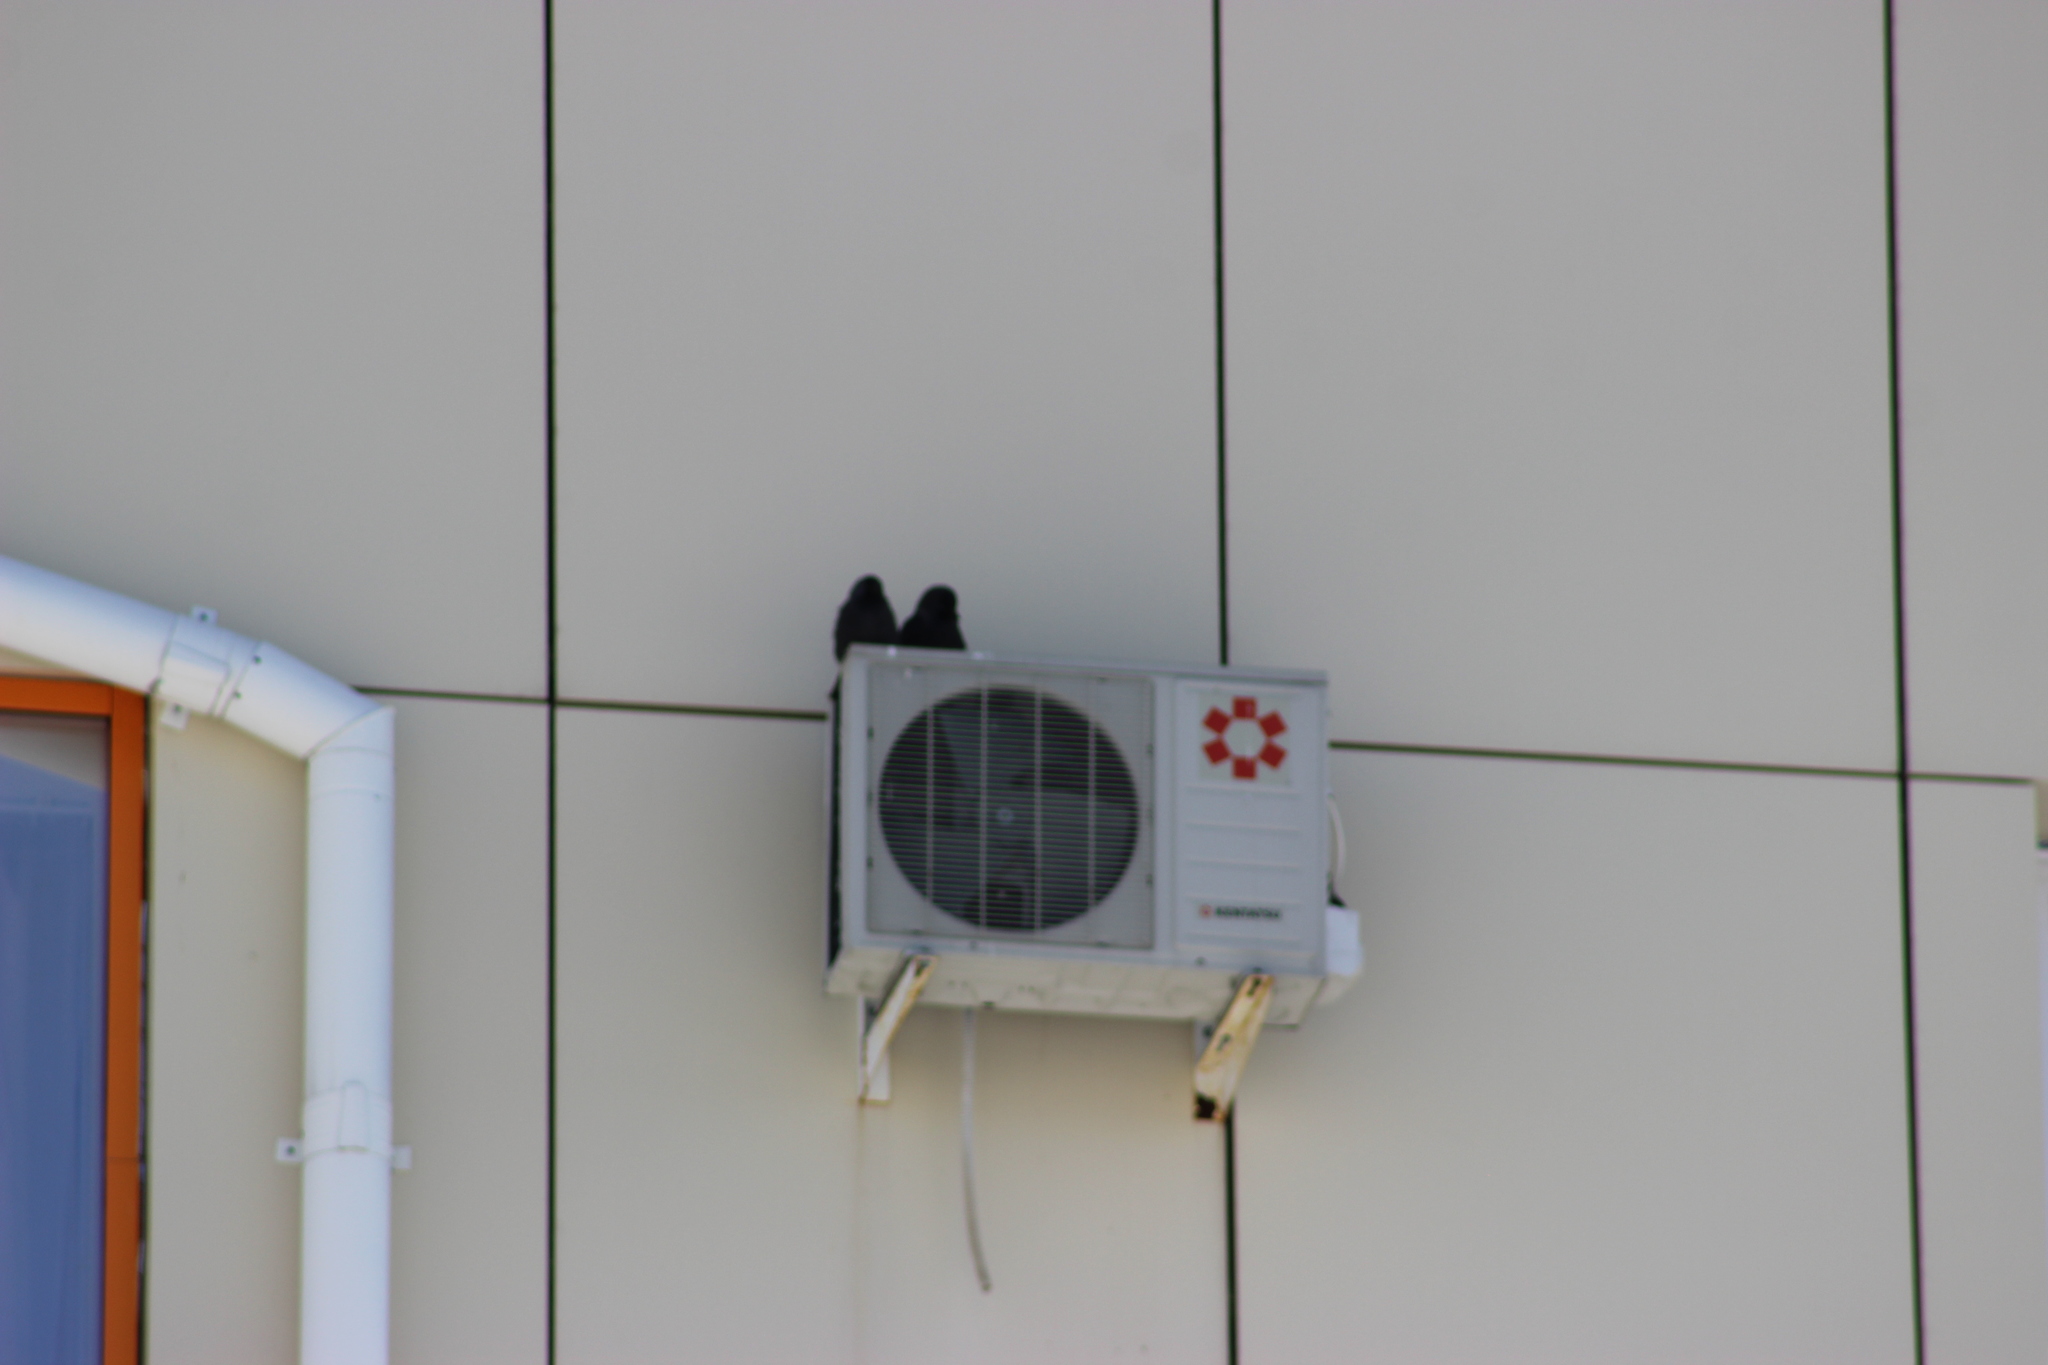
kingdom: Animalia
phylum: Chordata
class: Aves
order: Passeriformes
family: Corvidae
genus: Coloeus
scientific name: Coloeus monedula
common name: Western jackdaw
